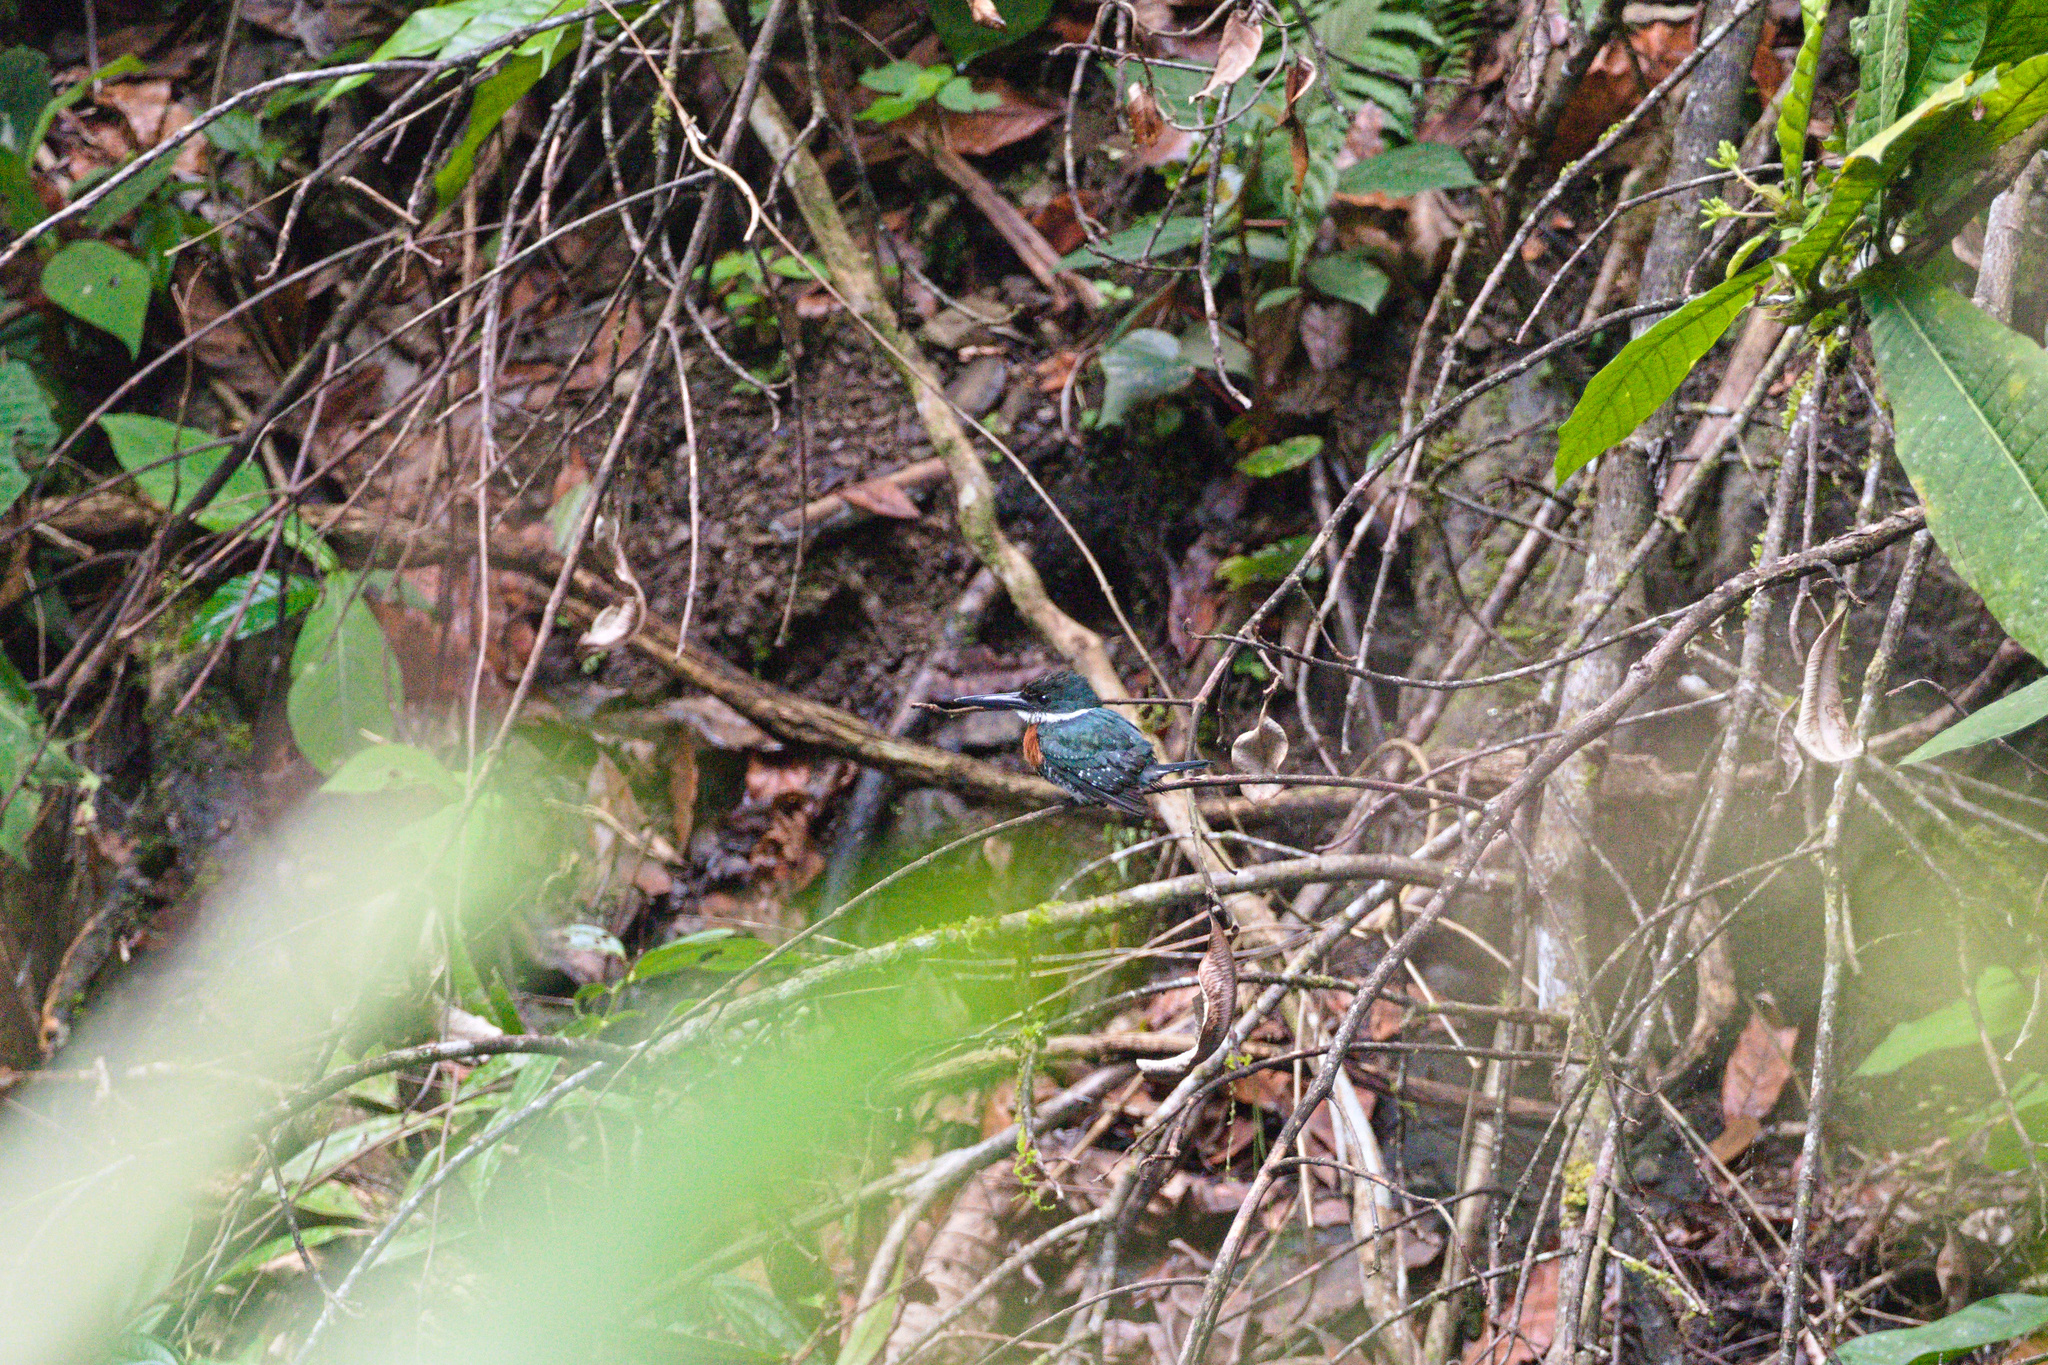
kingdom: Animalia
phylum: Chordata
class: Aves
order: Coraciiformes
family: Alcedinidae
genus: Chloroceryle
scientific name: Chloroceryle americana
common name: Green kingfisher
